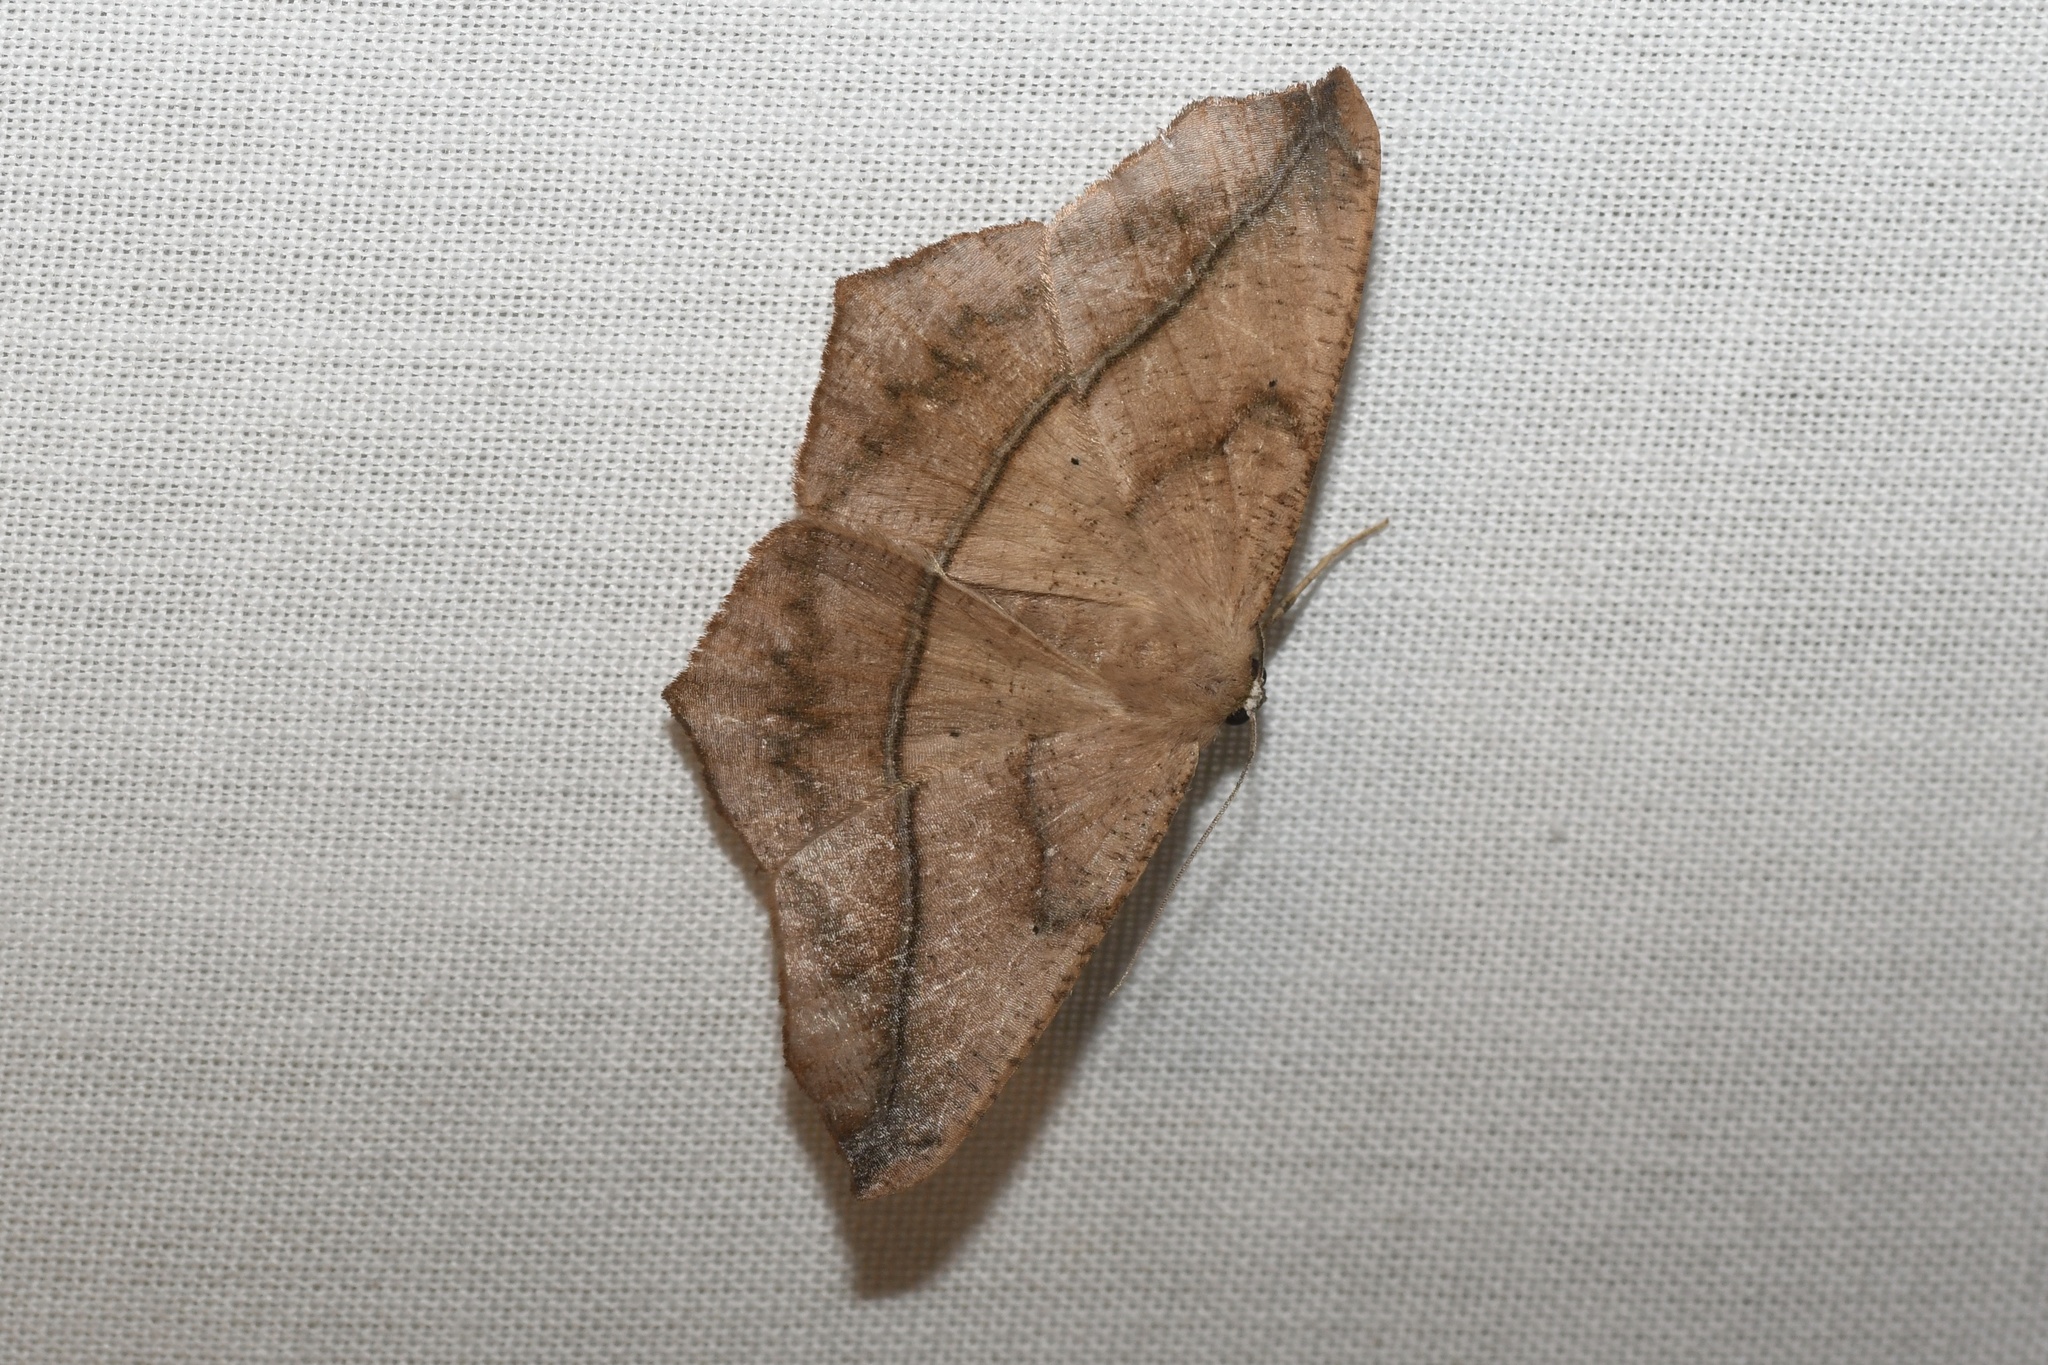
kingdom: Animalia
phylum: Arthropoda
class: Insecta
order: Lepidoptera
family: Geometridae
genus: Prochoerodes
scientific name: Prochoerodes lineola
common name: Large maple spanworm
